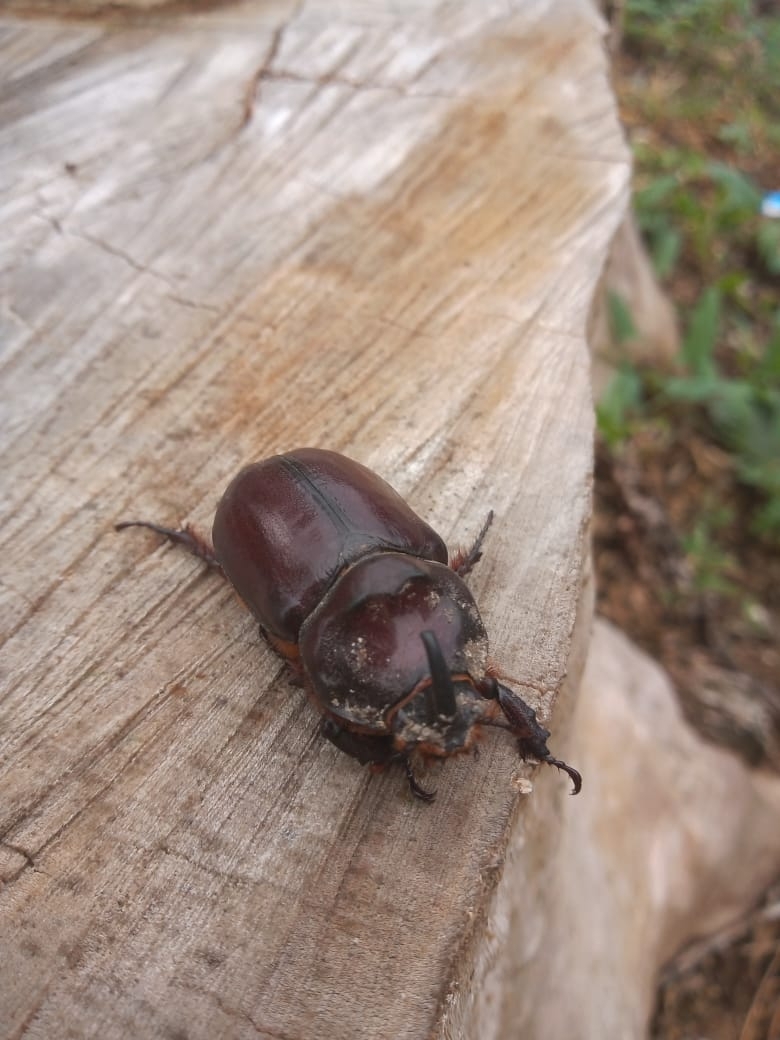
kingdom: Animalia
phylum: Arthropoda
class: Insecta
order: Coleoptera
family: Scarabaeidae
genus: Oryctes
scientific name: Oryctes nasicornis
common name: European rhinoceros beetle
